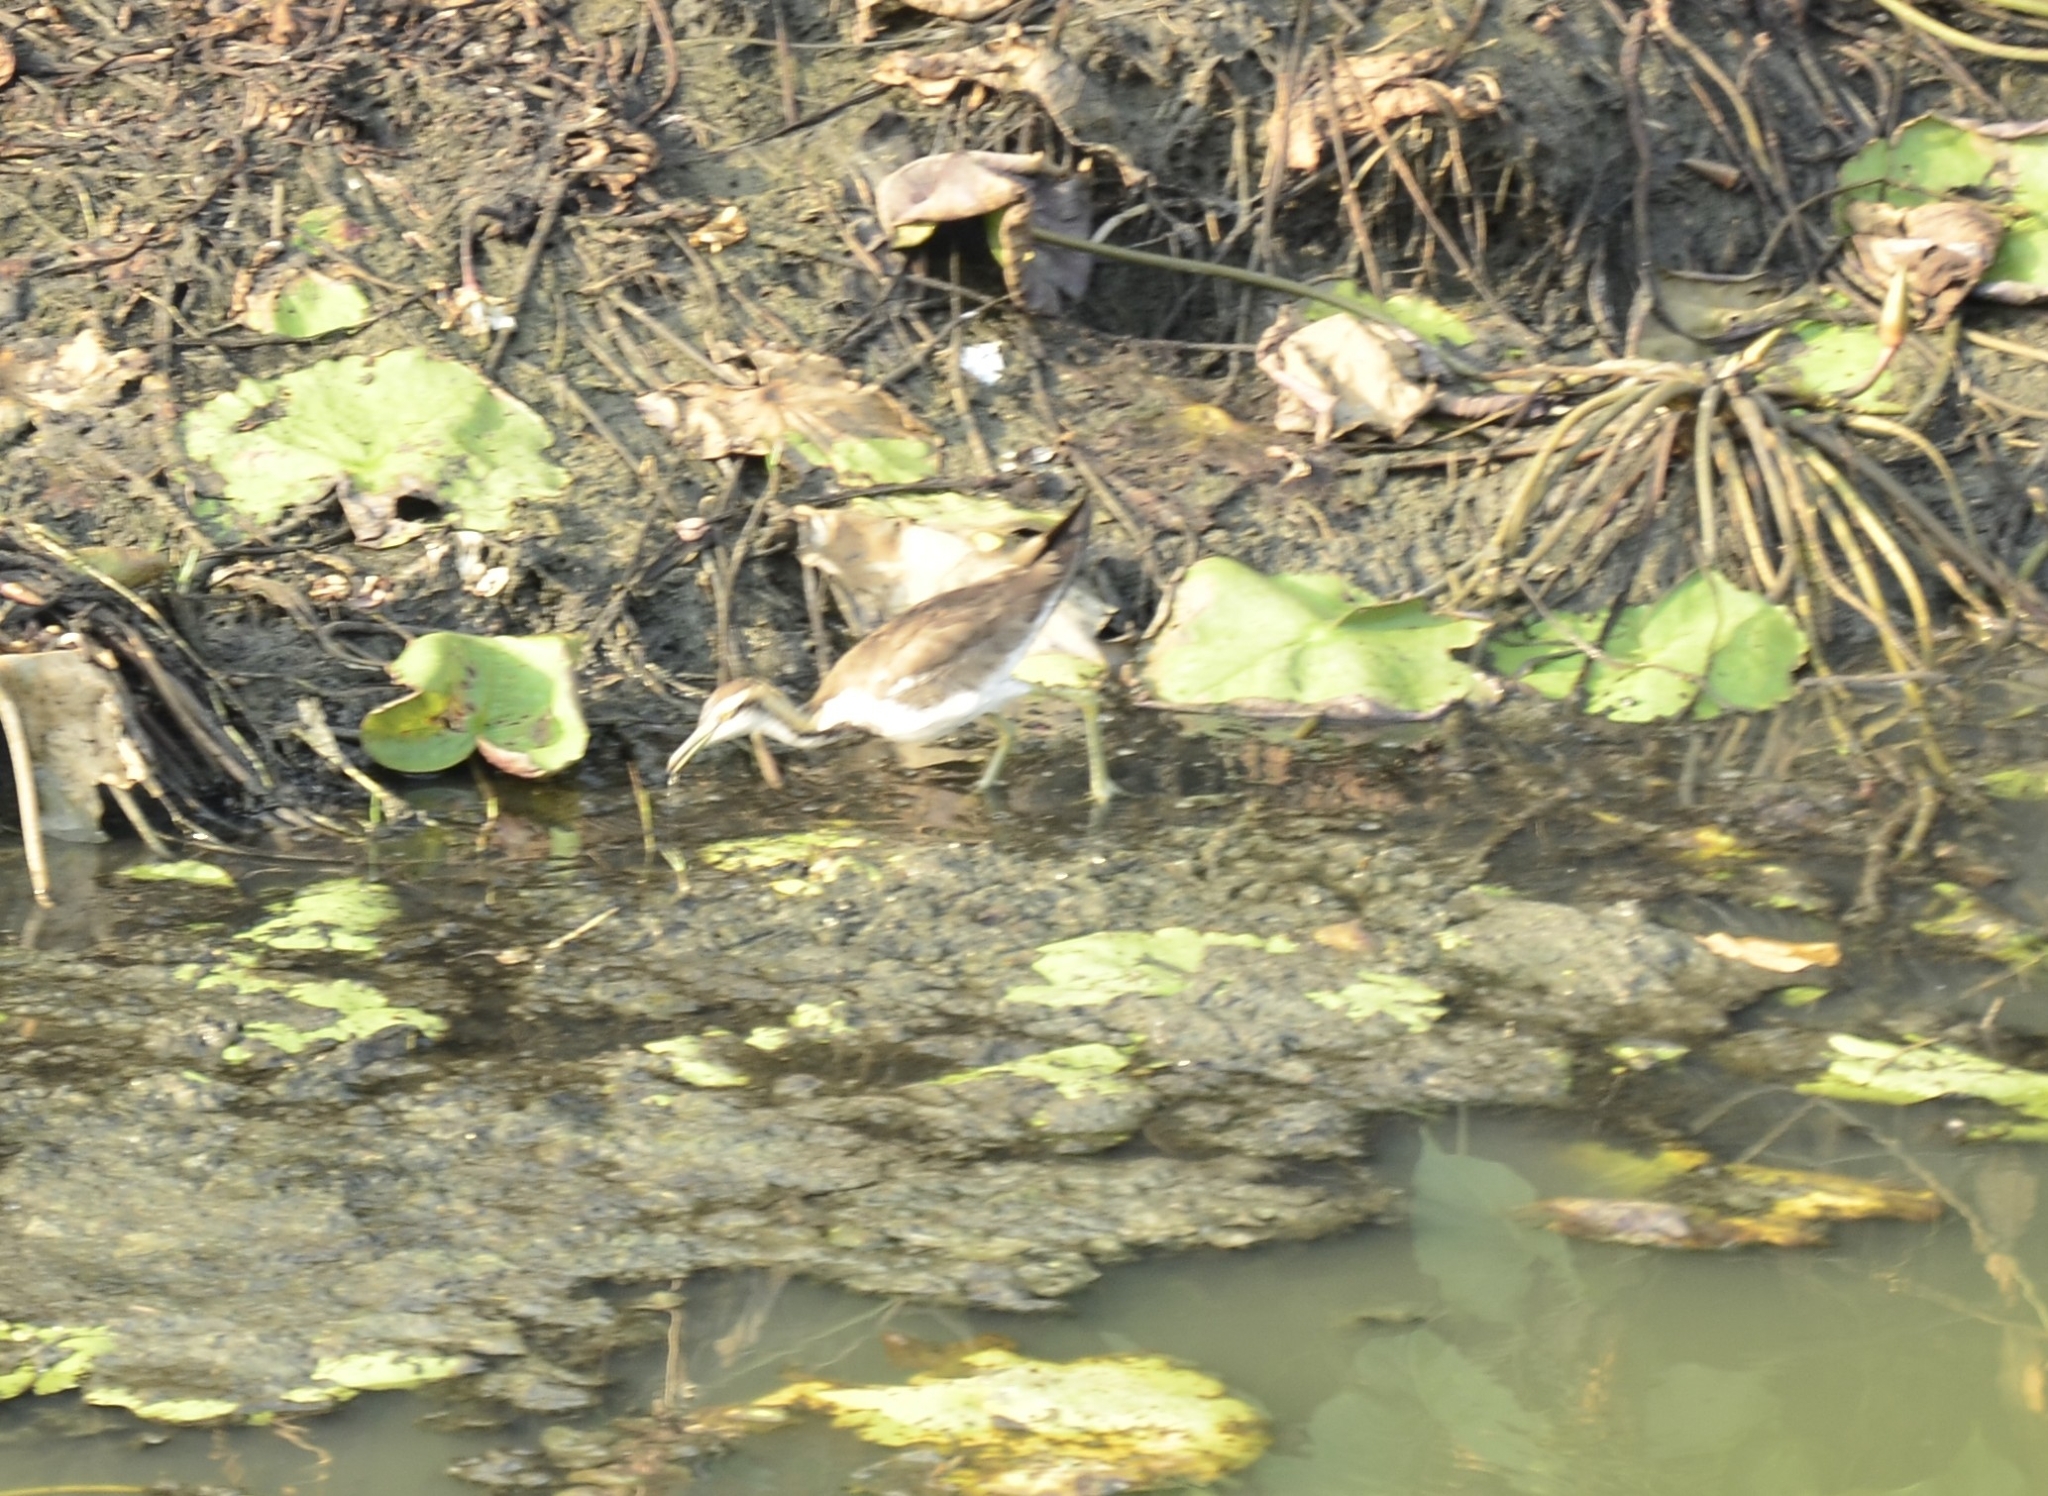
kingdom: Animalia
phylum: Chordata
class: Aves
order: Charadriiformes
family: Jacanidae
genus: Hydrophasianus
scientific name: Hydrophasianus chirurgus
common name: Pheasant-tailed jacana
